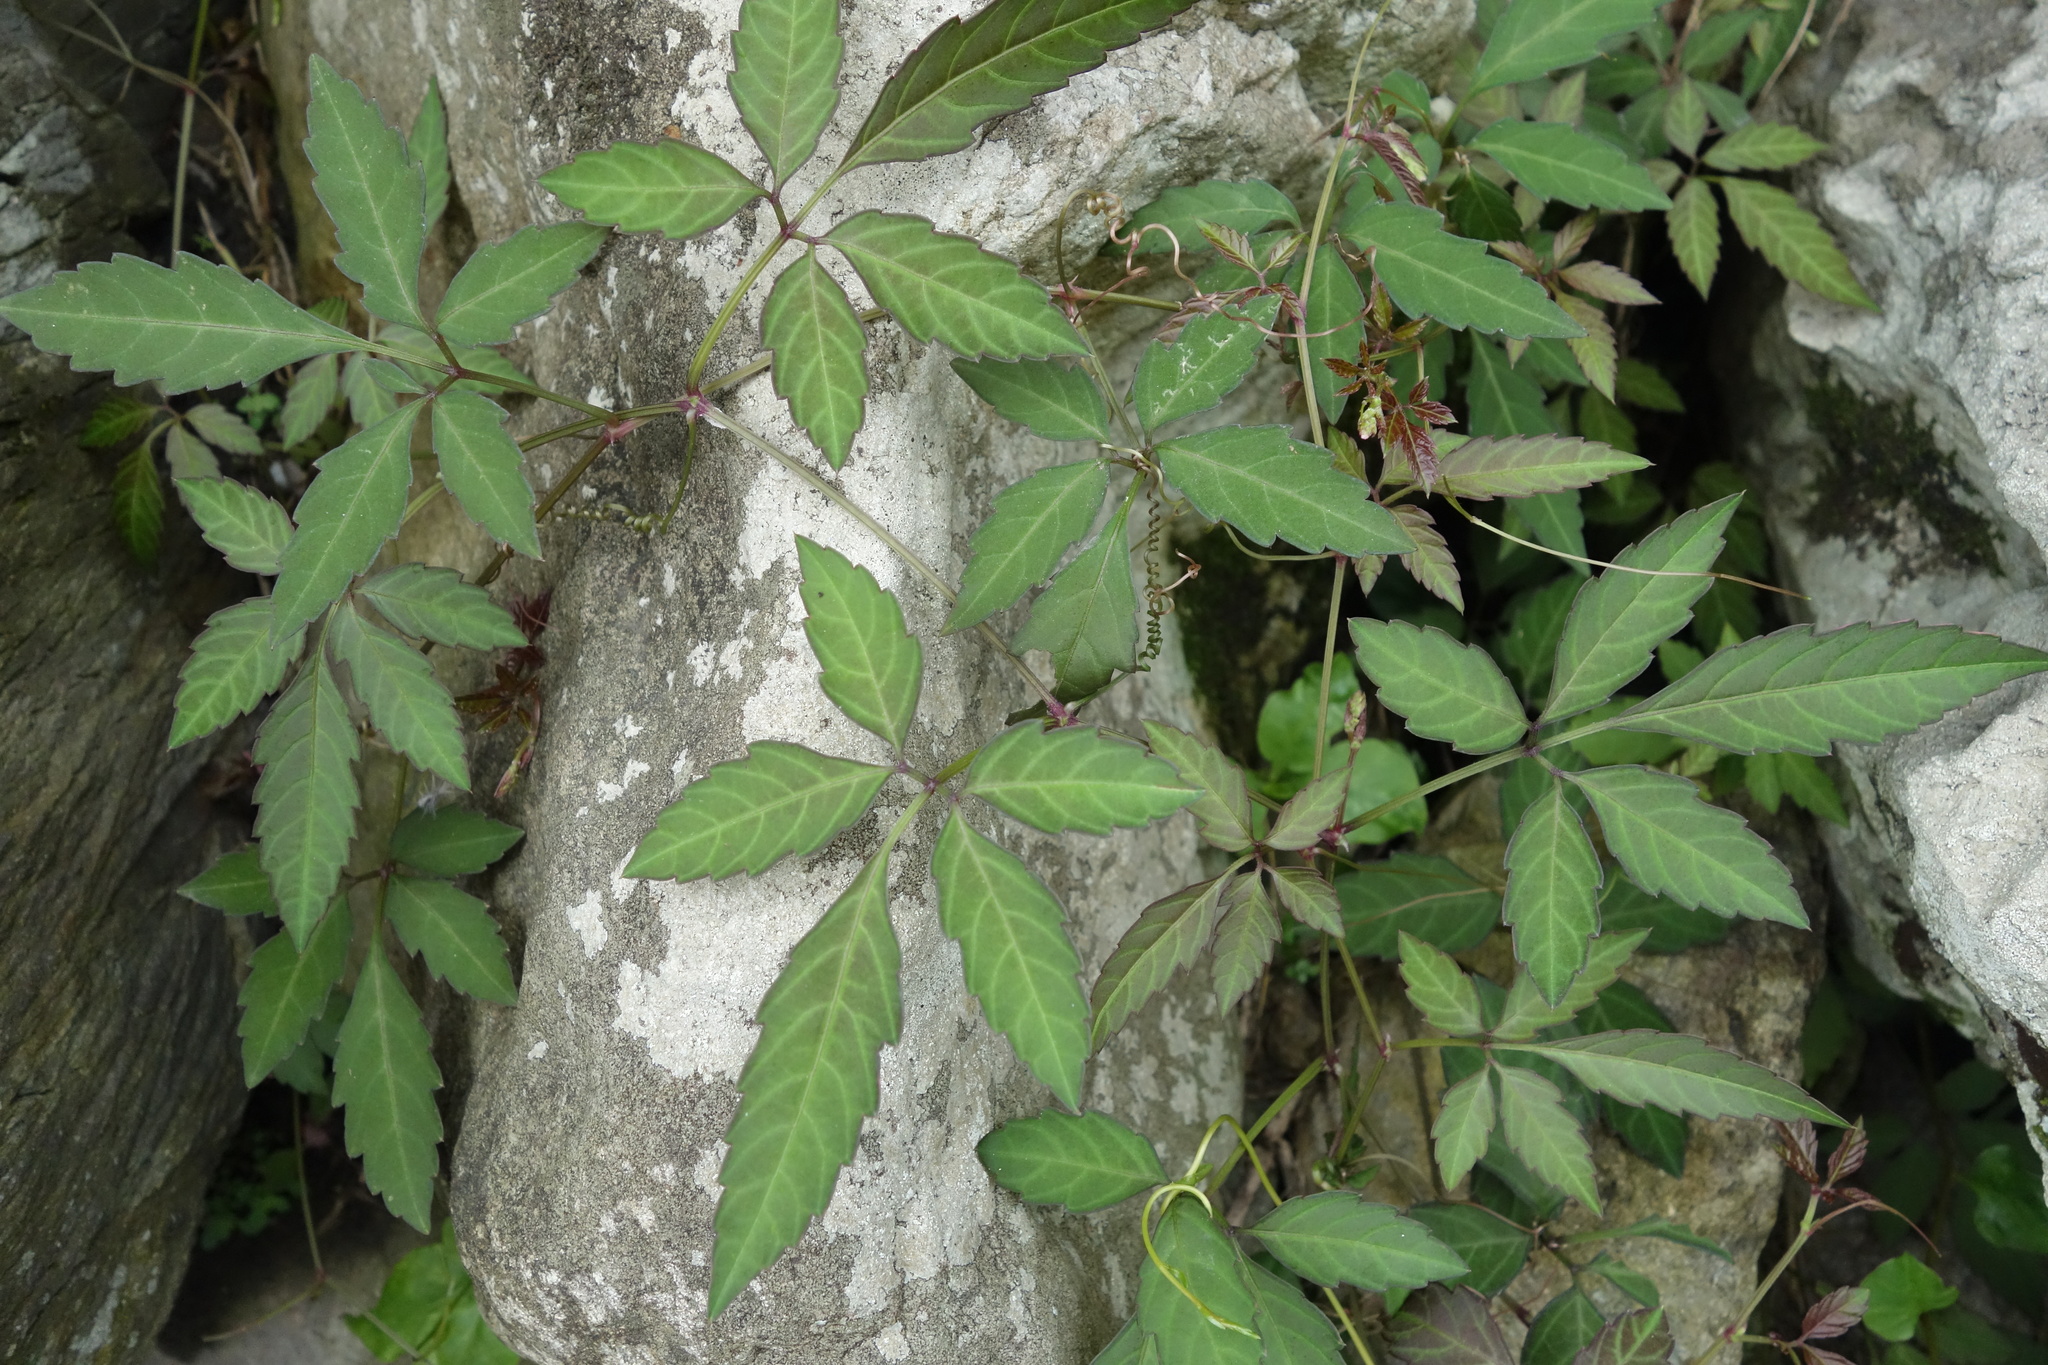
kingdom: Plantae
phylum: Tracheophyta
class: Magnoliopsida
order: Vitales
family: Vitaceae
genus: Causonis
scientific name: Causonis japonica
